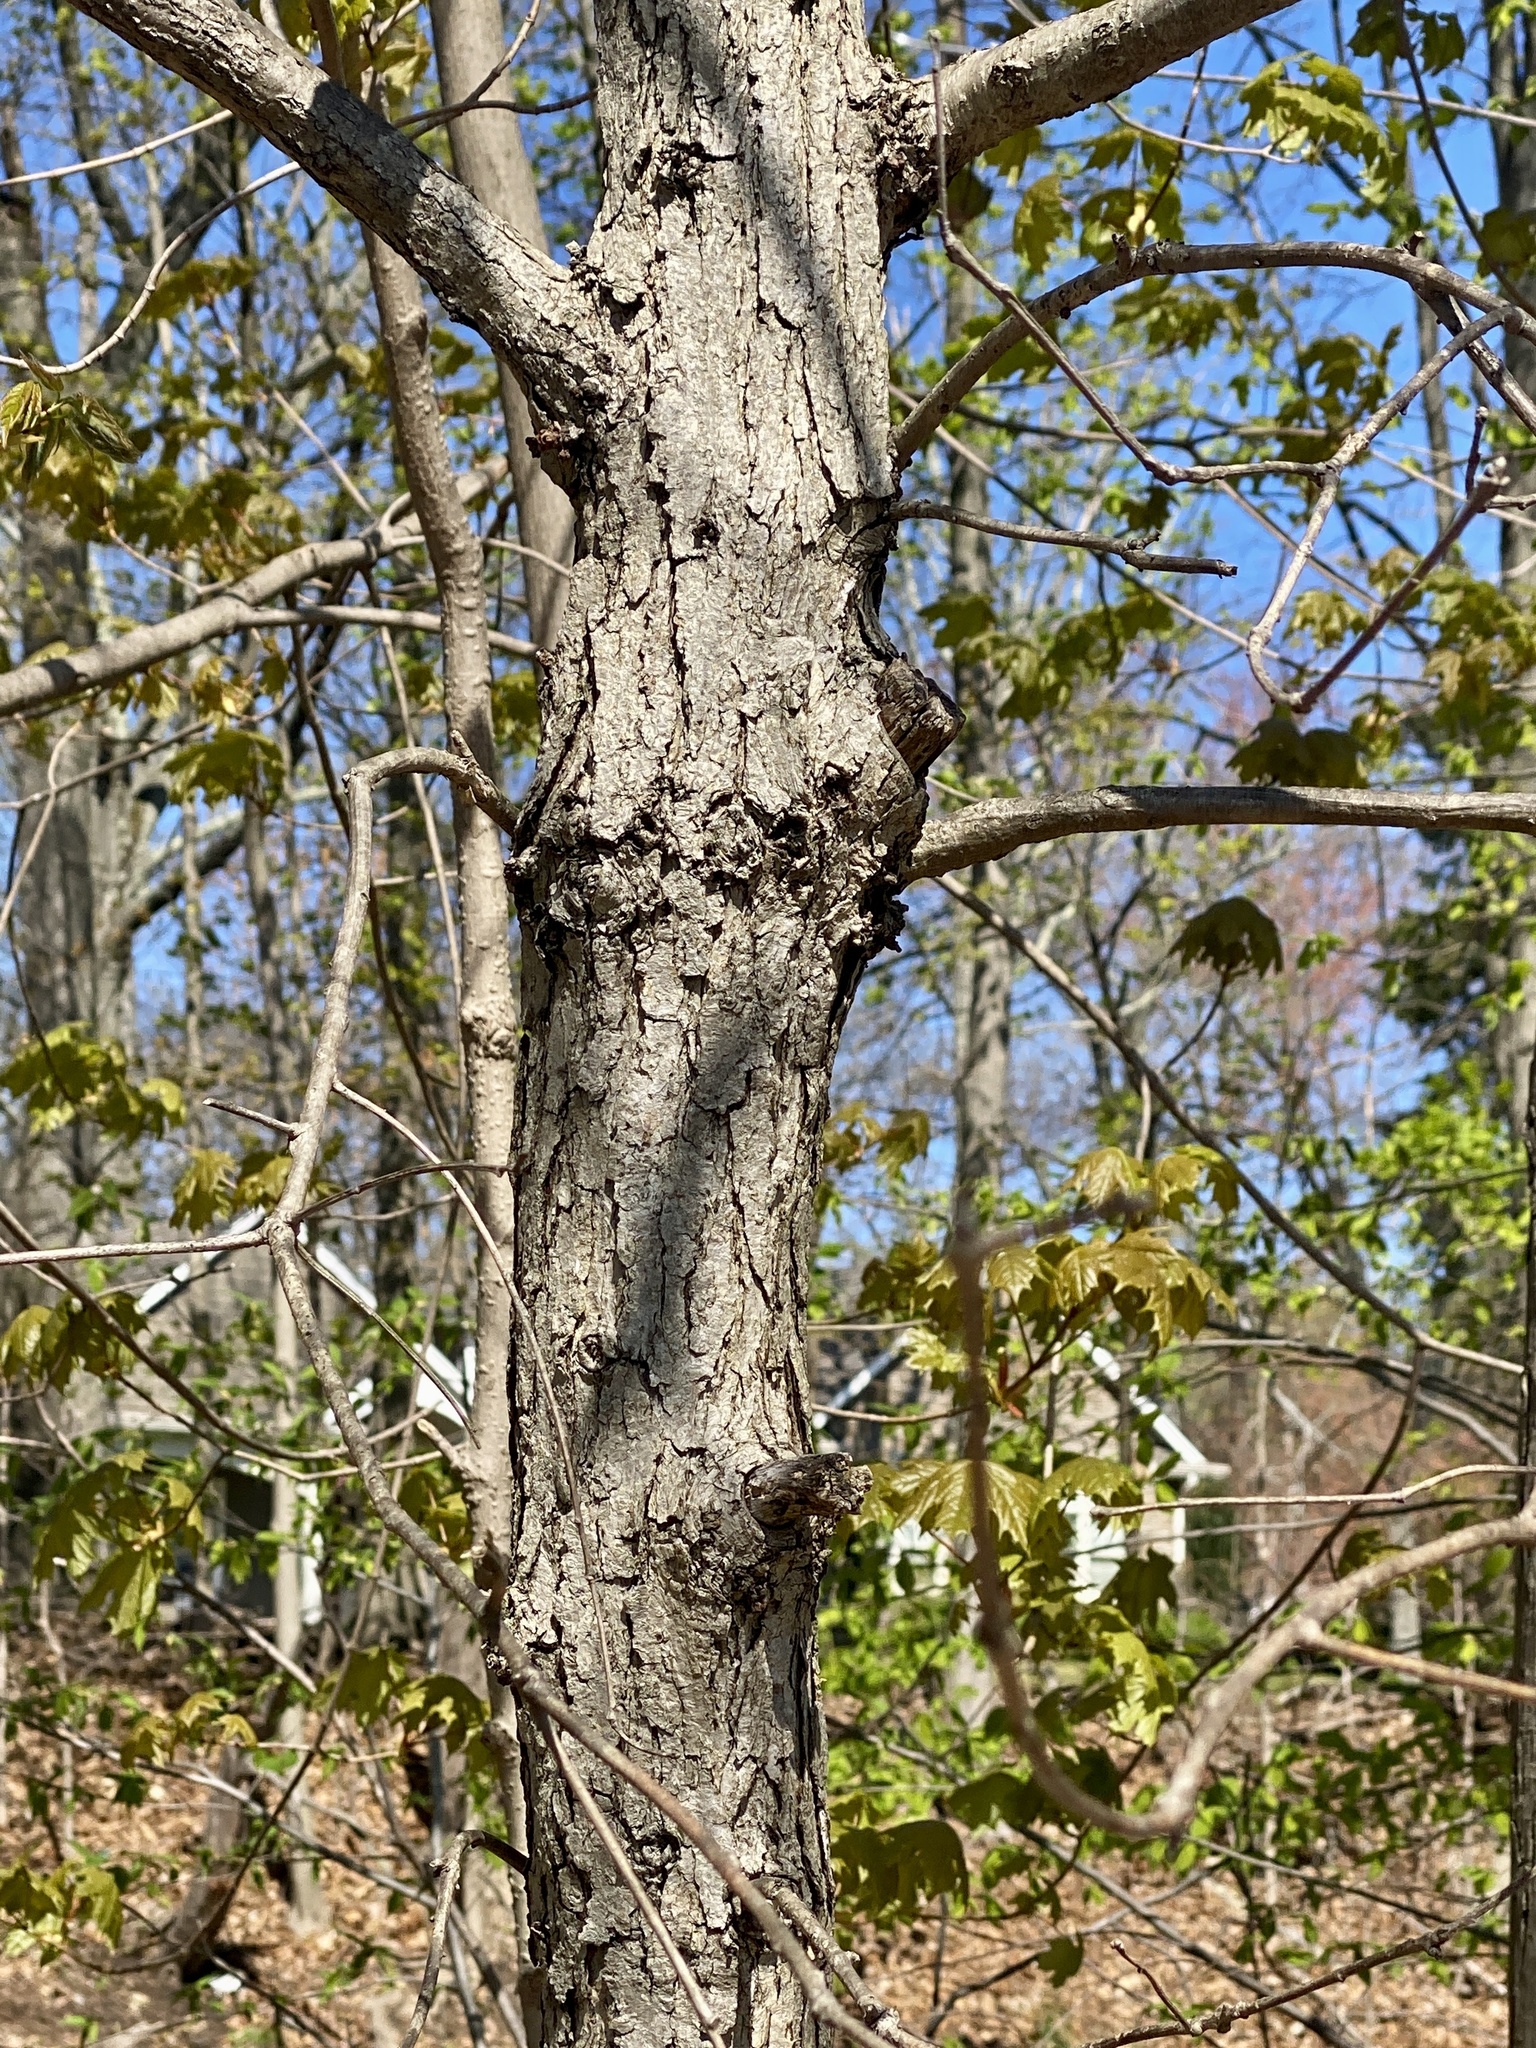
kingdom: Animalia
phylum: Arthropoda
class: Insecta
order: Hymenoptera
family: Cynipidae
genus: Disholcaspis
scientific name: Disholcaspis quercusglobulus
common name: Round bullet gall wasp
